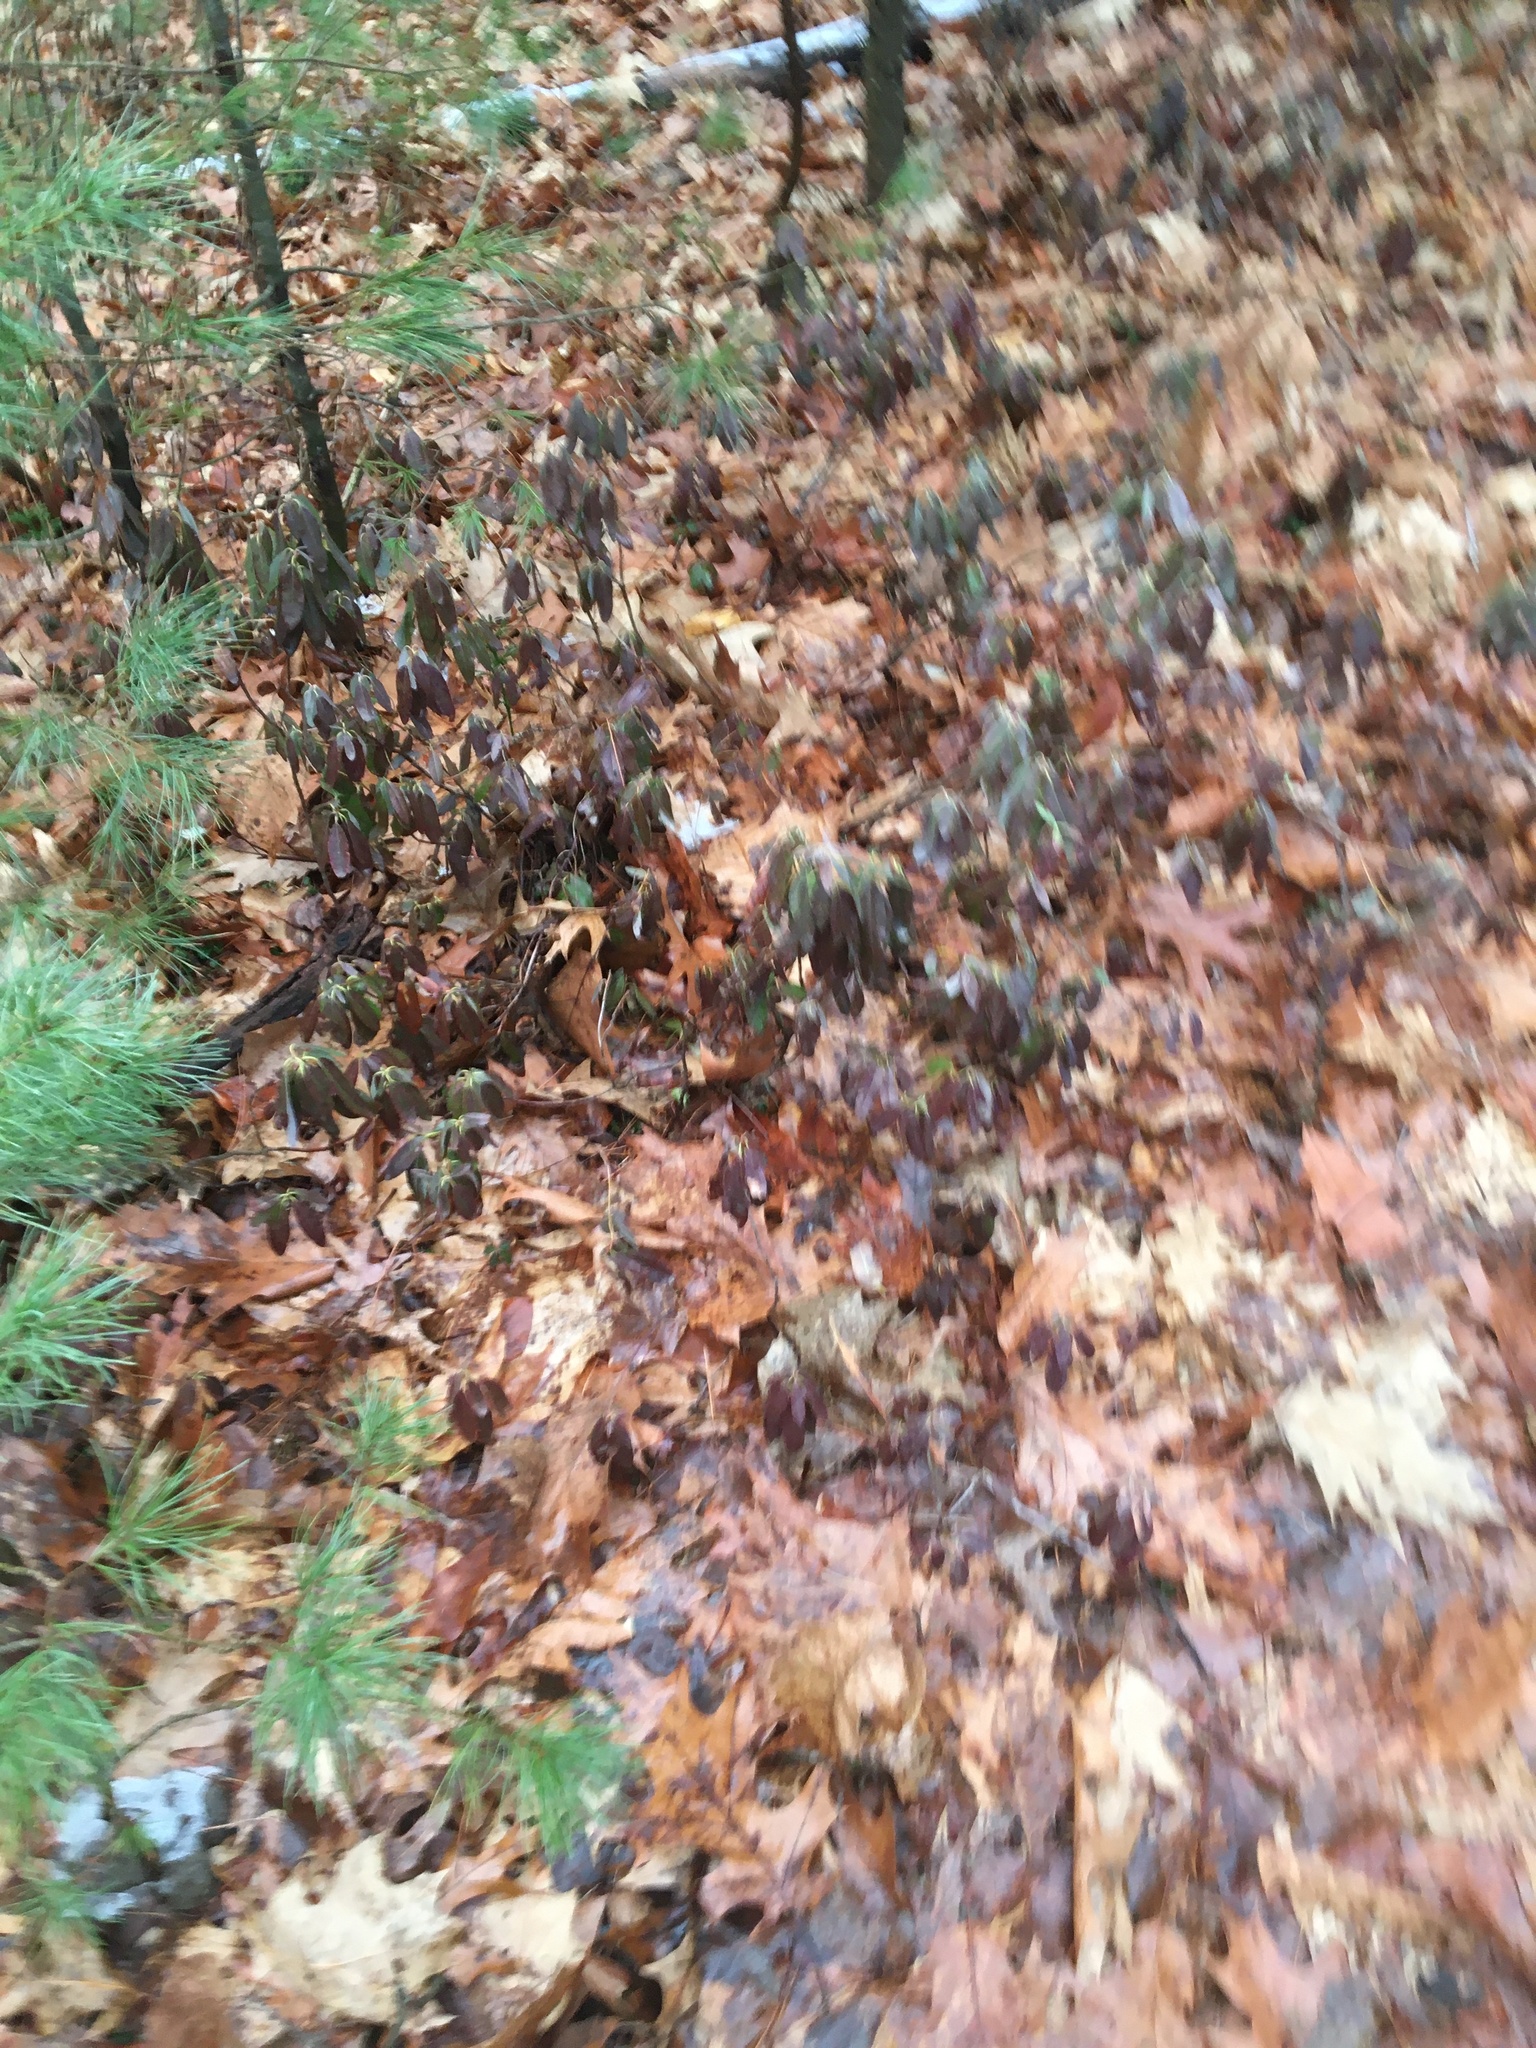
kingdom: Plantae
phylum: Tracheophyta
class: Magnoliopsida
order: Ericales
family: Ericaceae
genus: Kalmia
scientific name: Kalmia angustifolia
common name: Sheep-laurel
